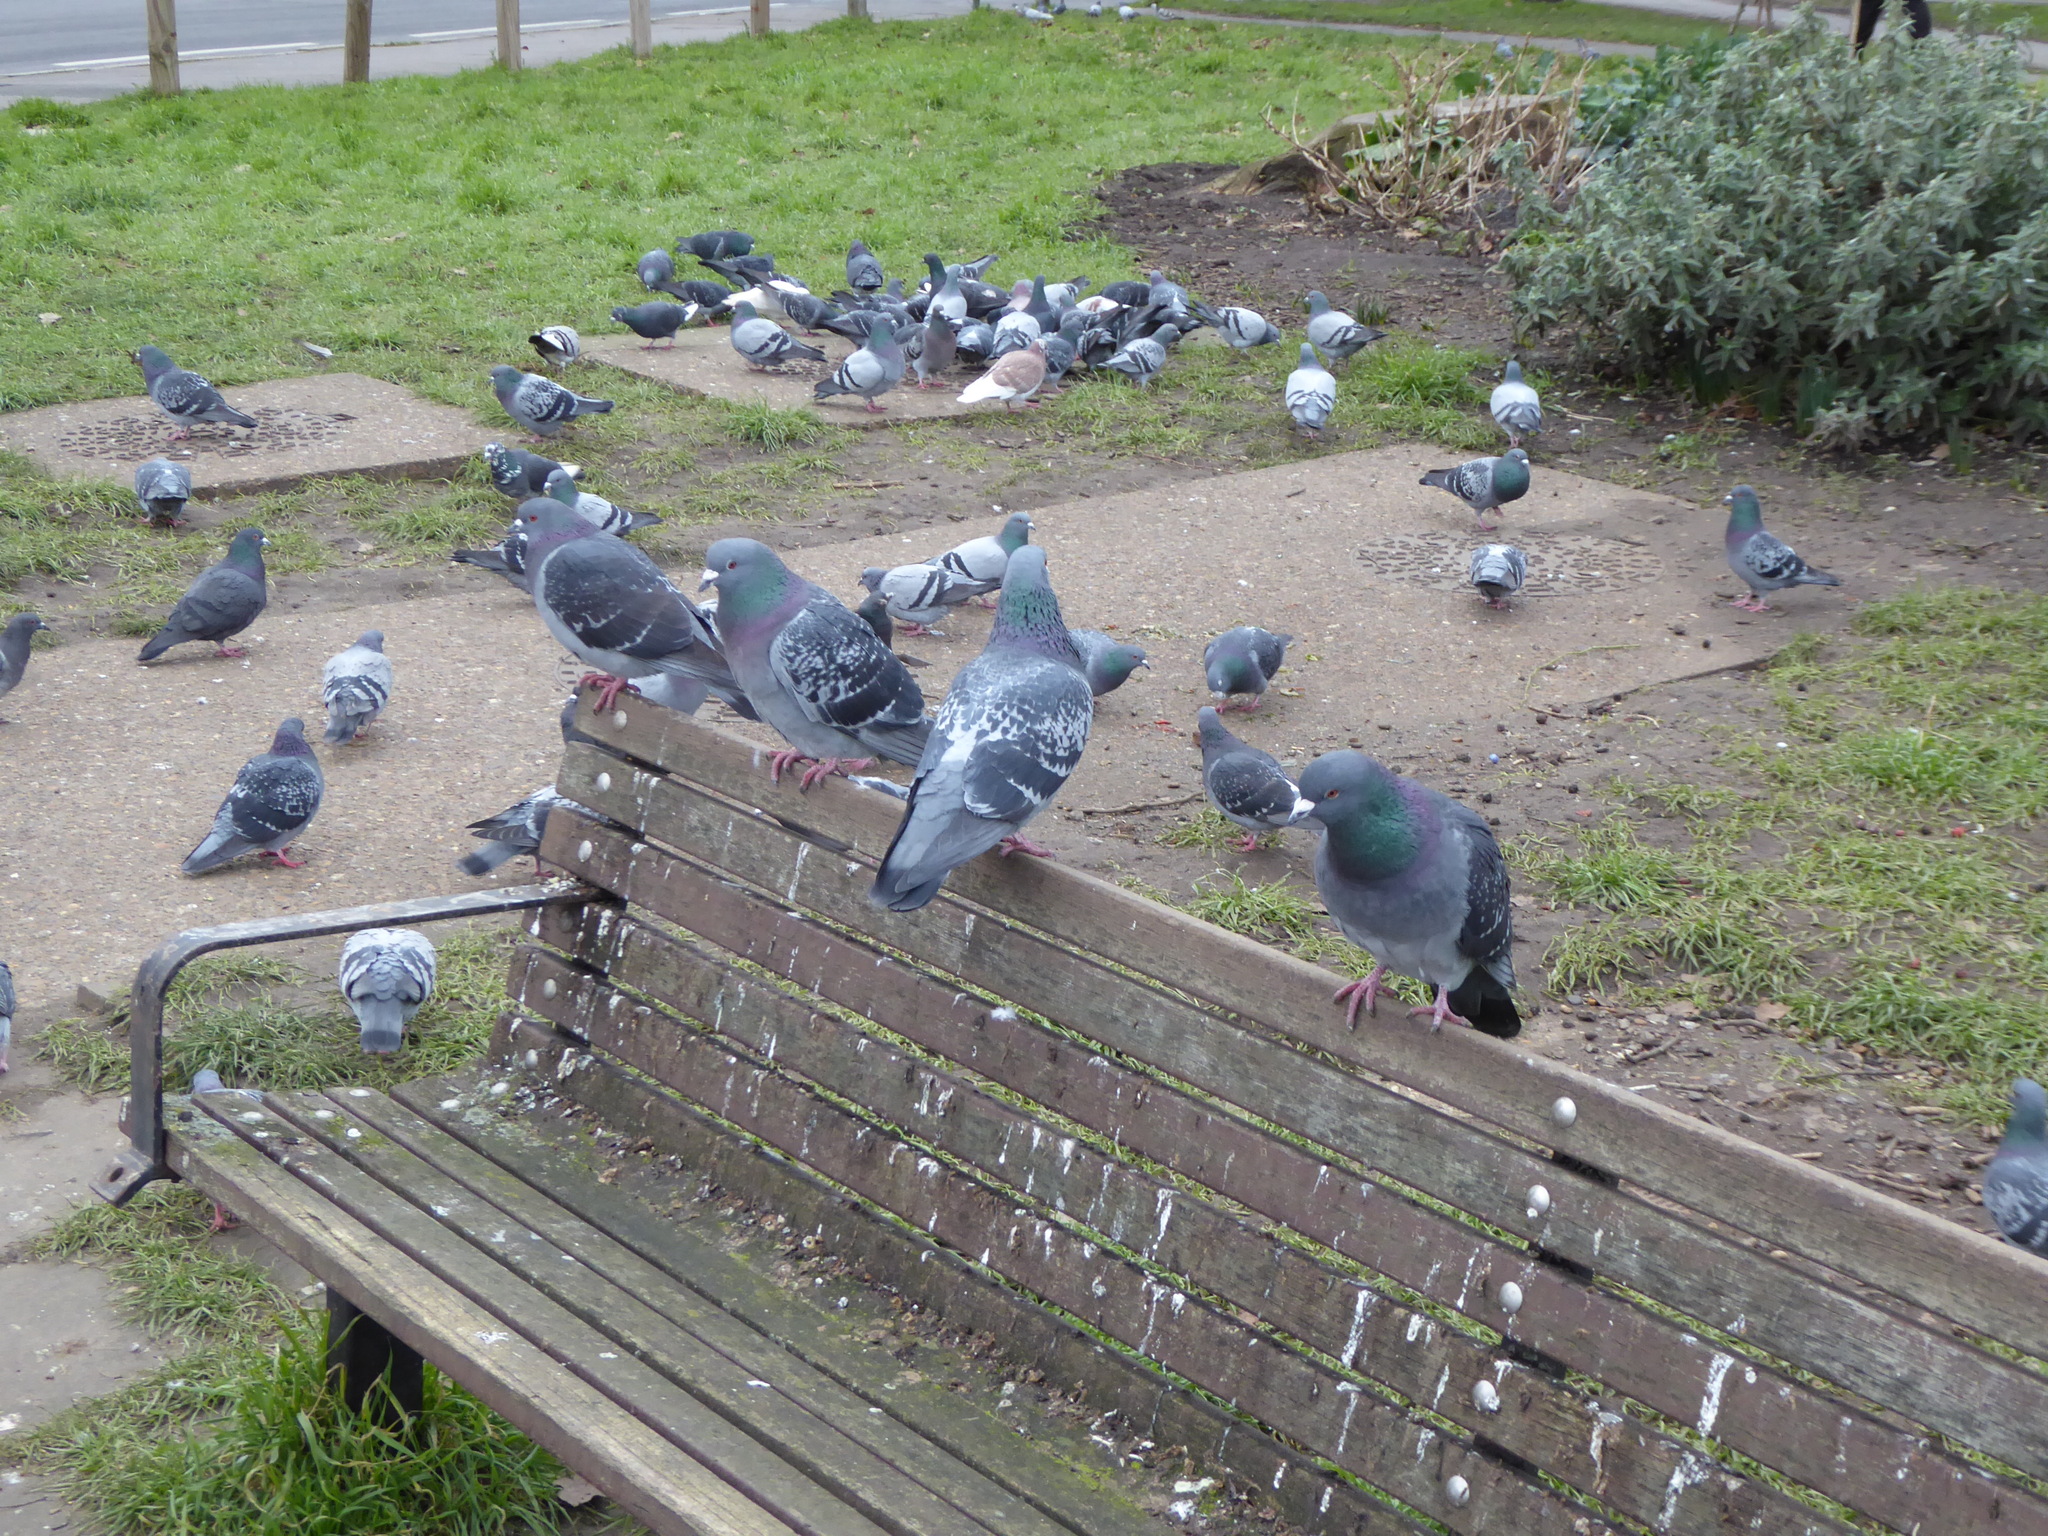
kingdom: Animalia
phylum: Chordata
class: Aves
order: Columbiformes
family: Columbidae
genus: Columba
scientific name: Columba livia
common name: Rock pigeon
